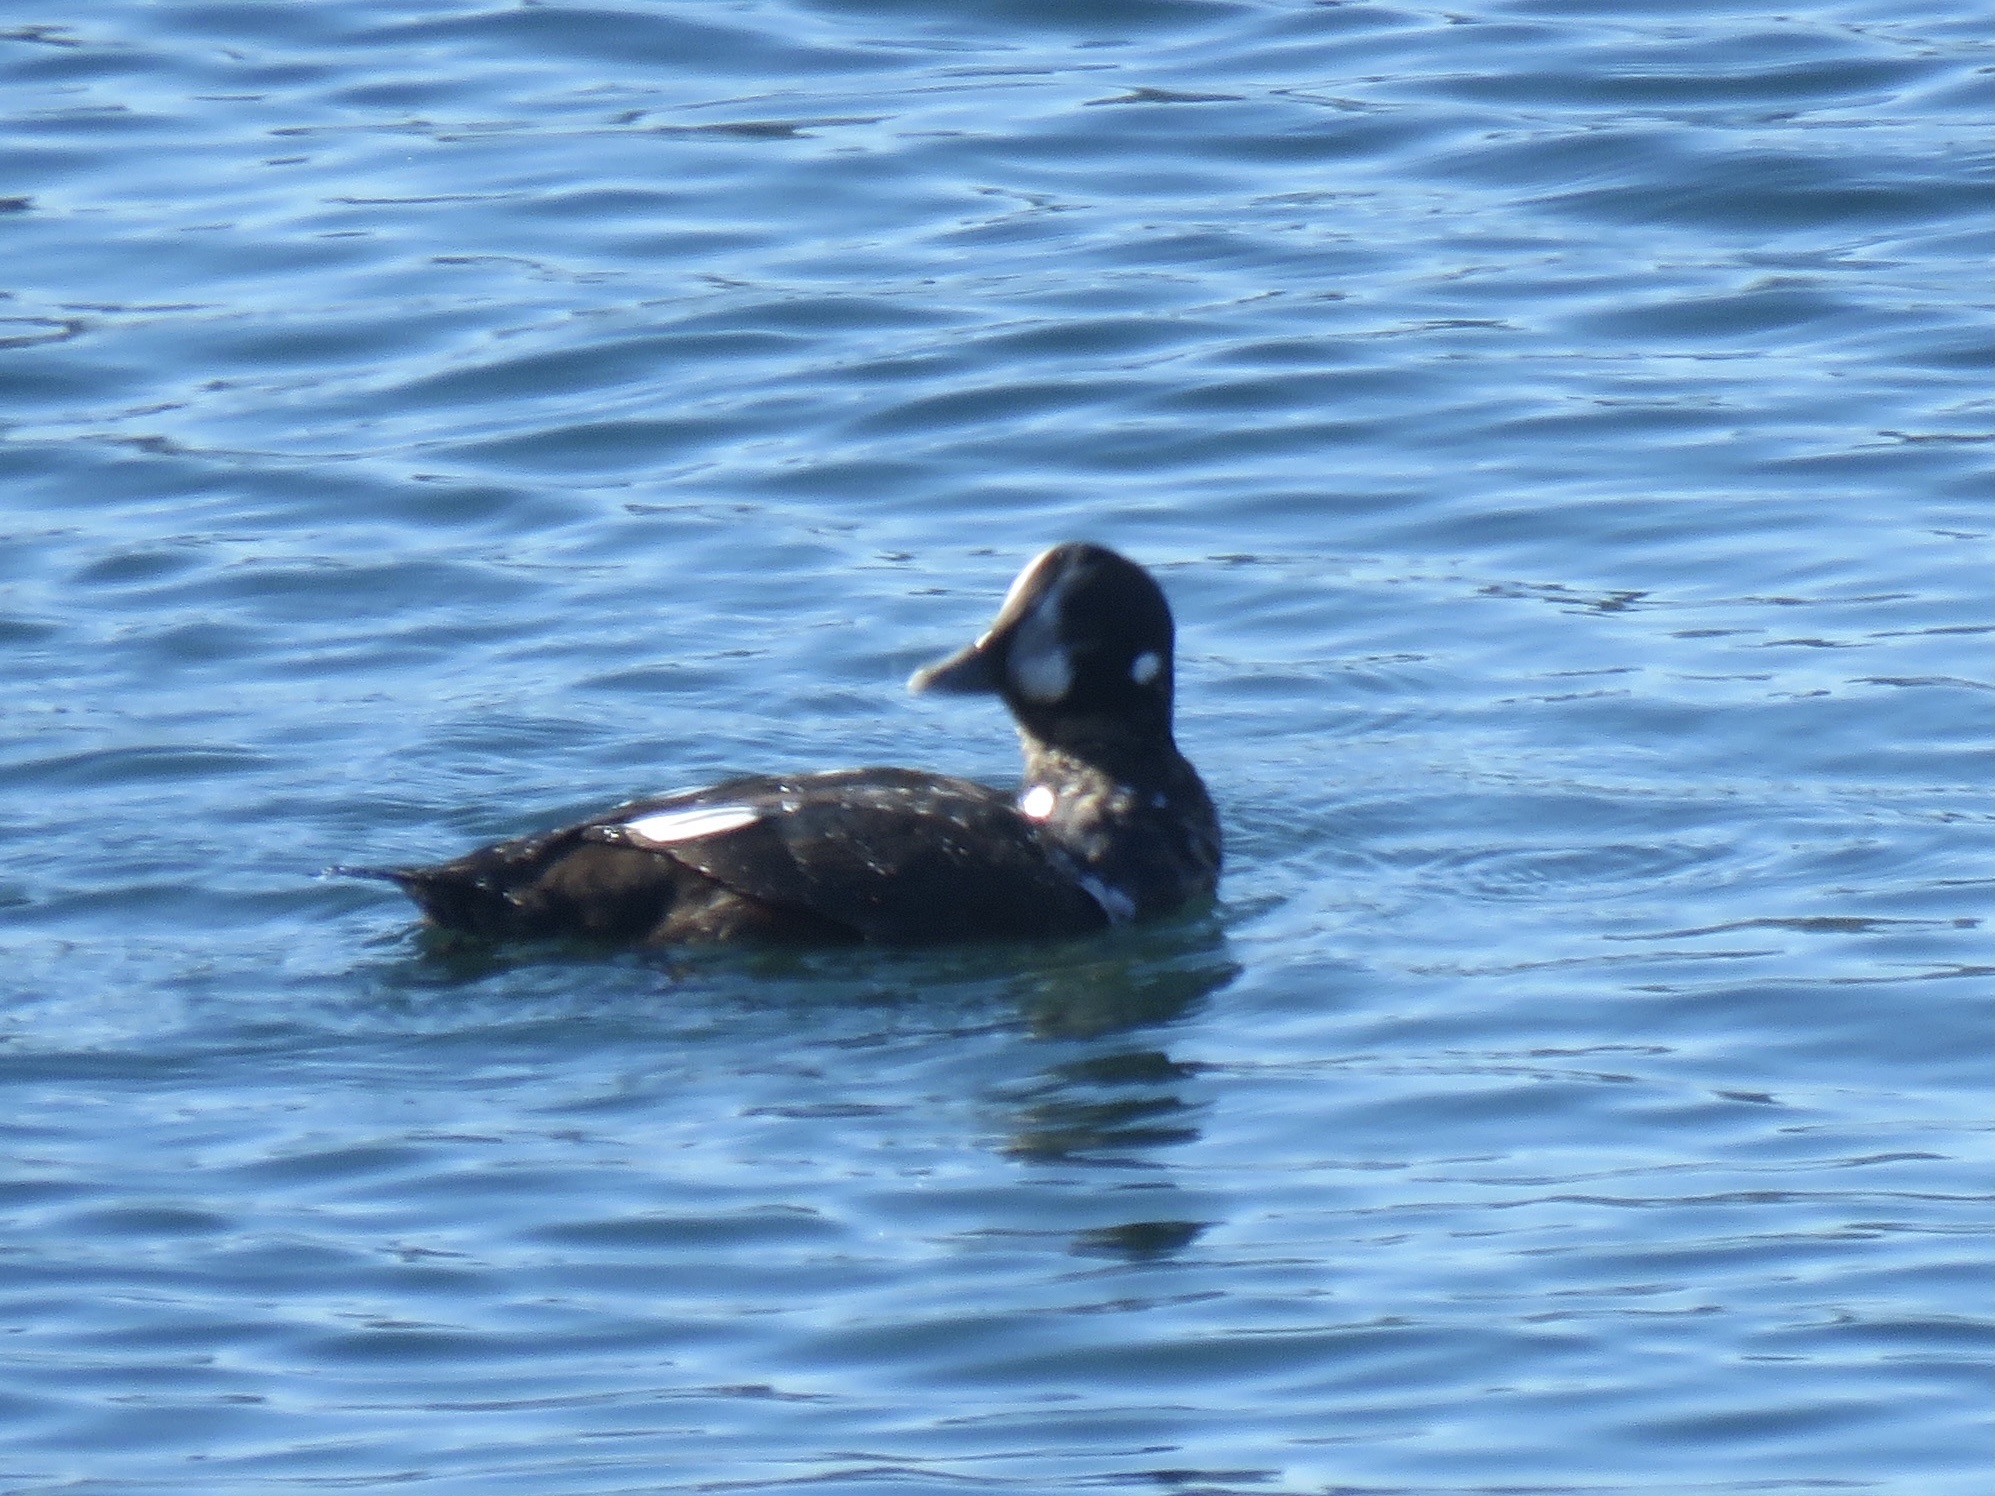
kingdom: Animalia
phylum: Chordata
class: Aves
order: Anseriformes
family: Anatidae
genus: Histrionicus
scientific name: Histrionicus histrionicus
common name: Harlequin duck
